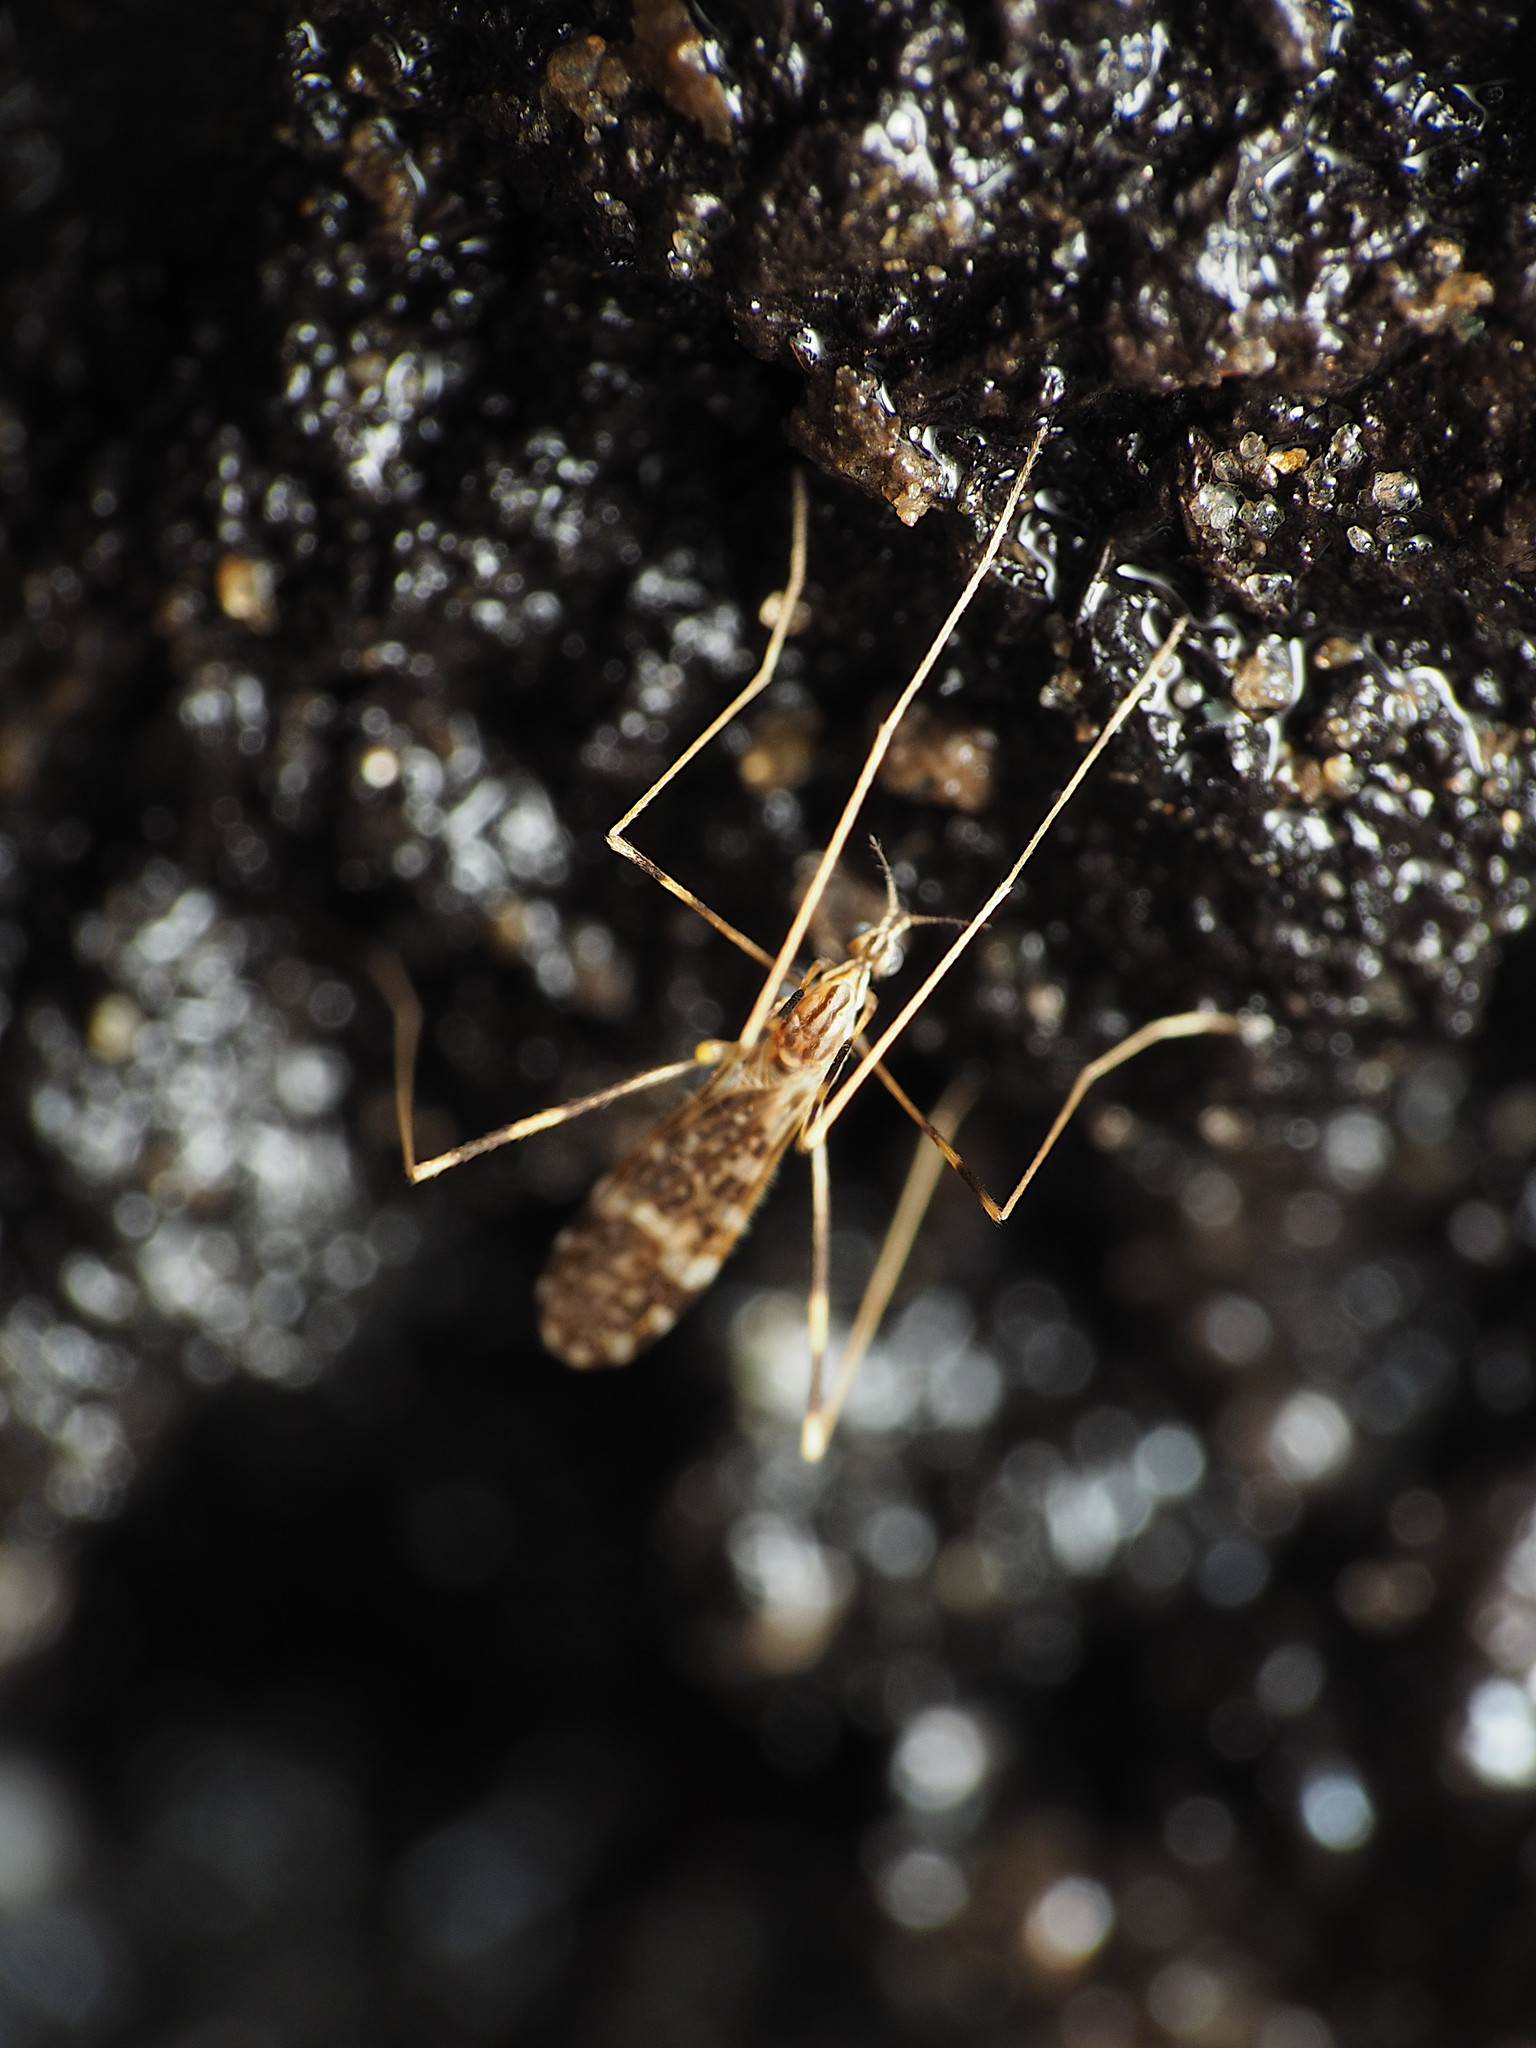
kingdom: Animalia
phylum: Arthropoda
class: Insecta
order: Diptera
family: Limoniidae
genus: Erioptera
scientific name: Erioptera caliptera
